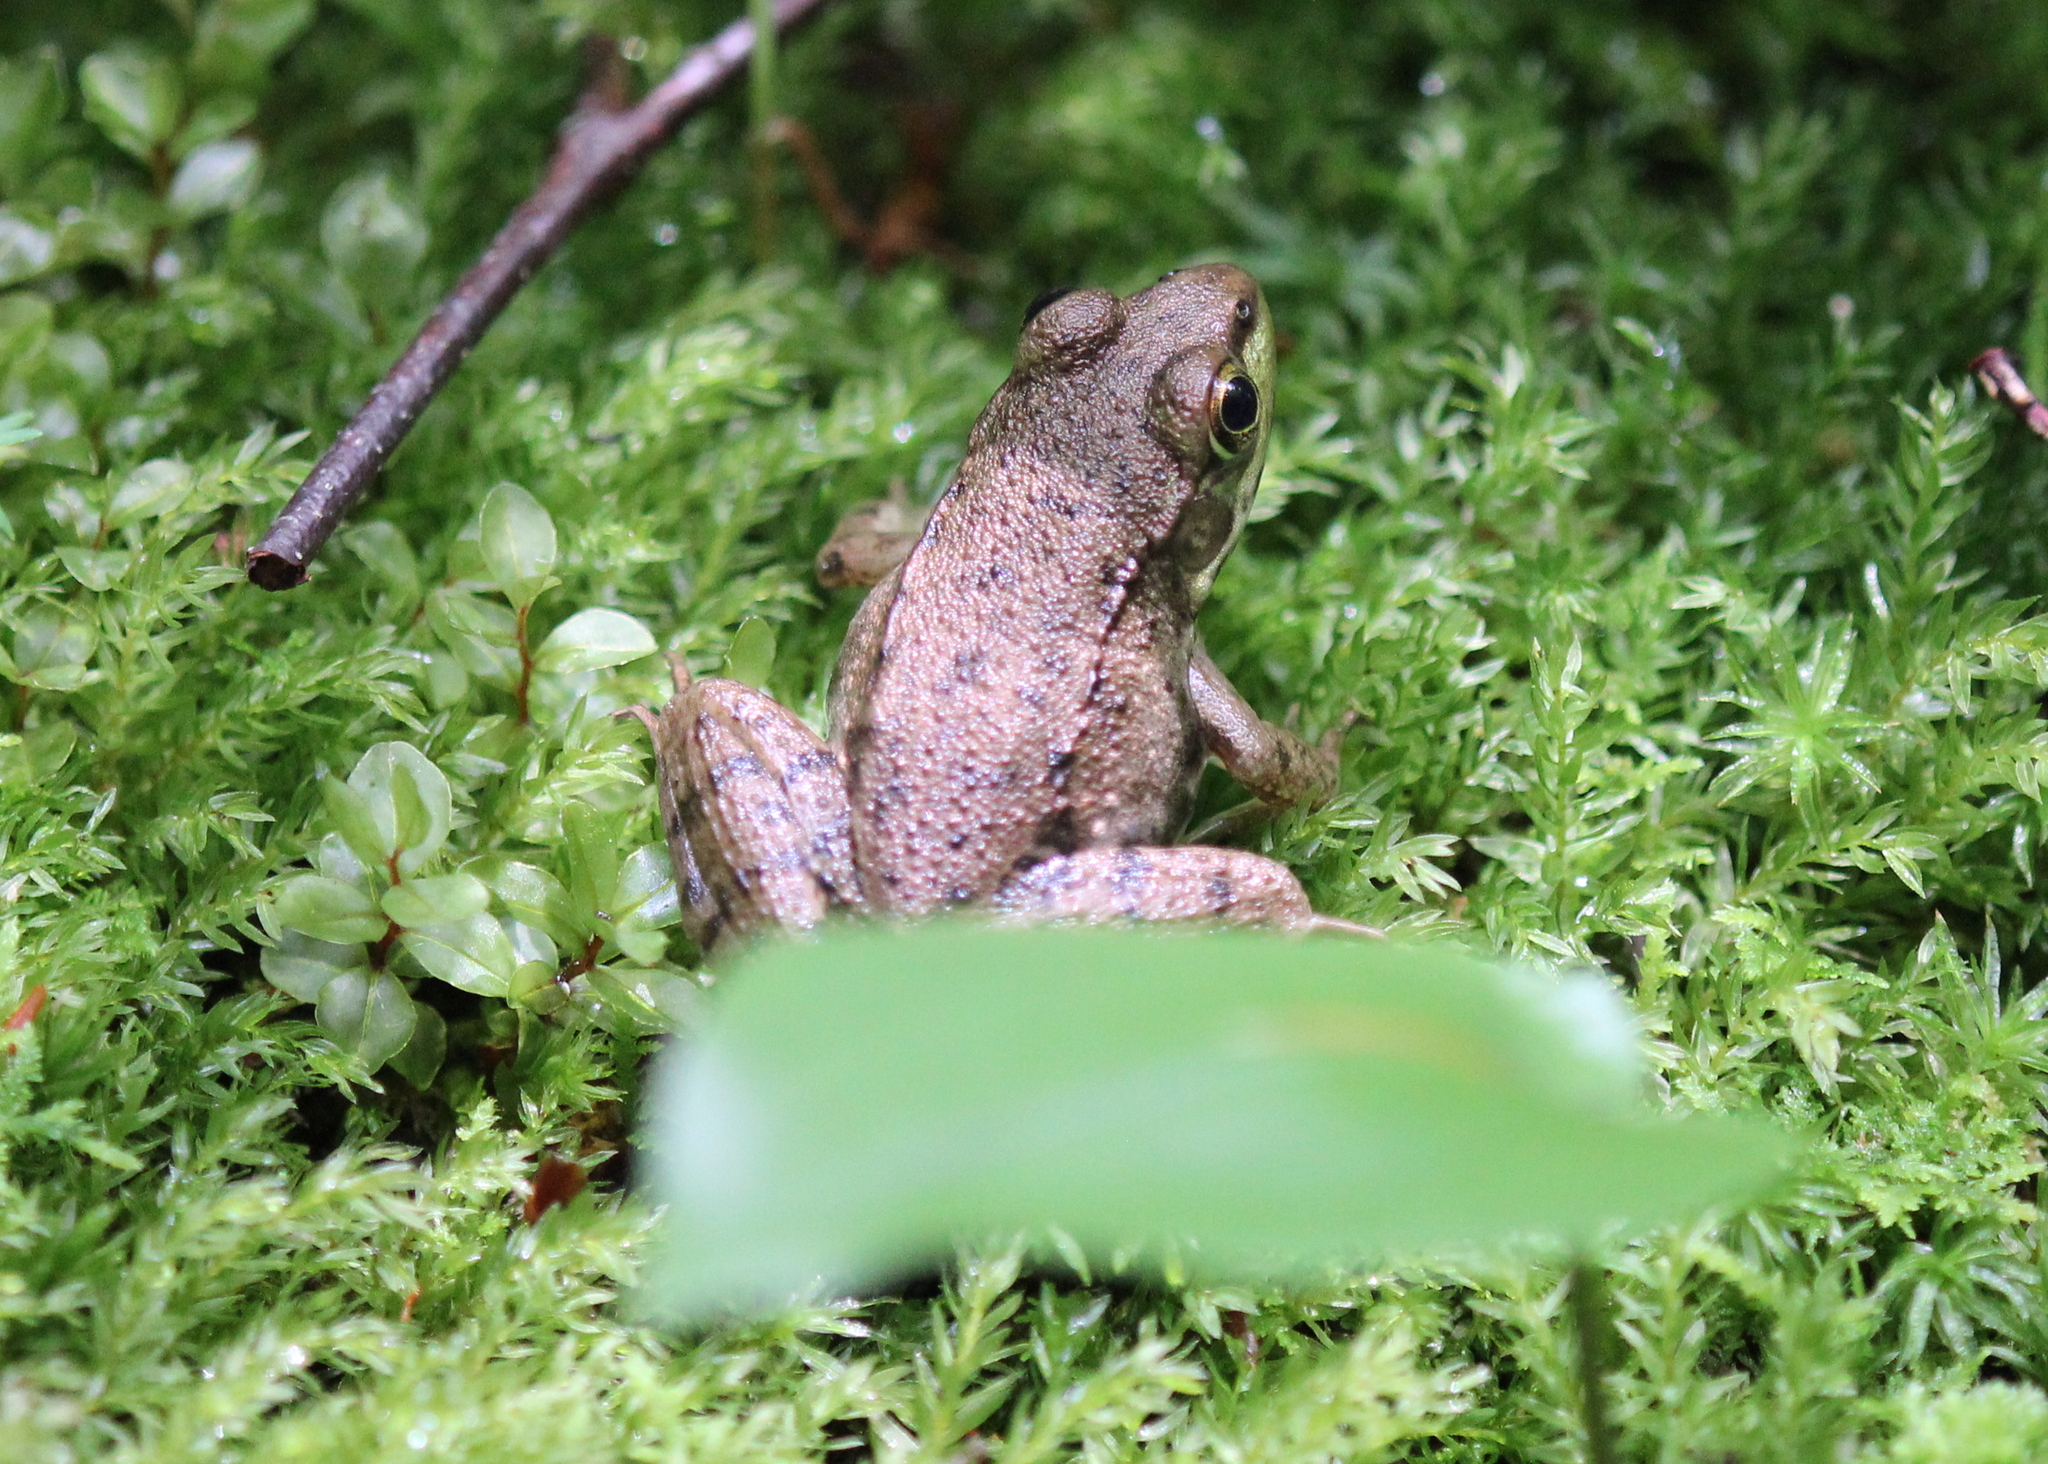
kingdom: Animalia
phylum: Chordata
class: Amphibia
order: Anura
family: Ranidae
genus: Lithobates
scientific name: Lithobates clamitans
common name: Green frog
